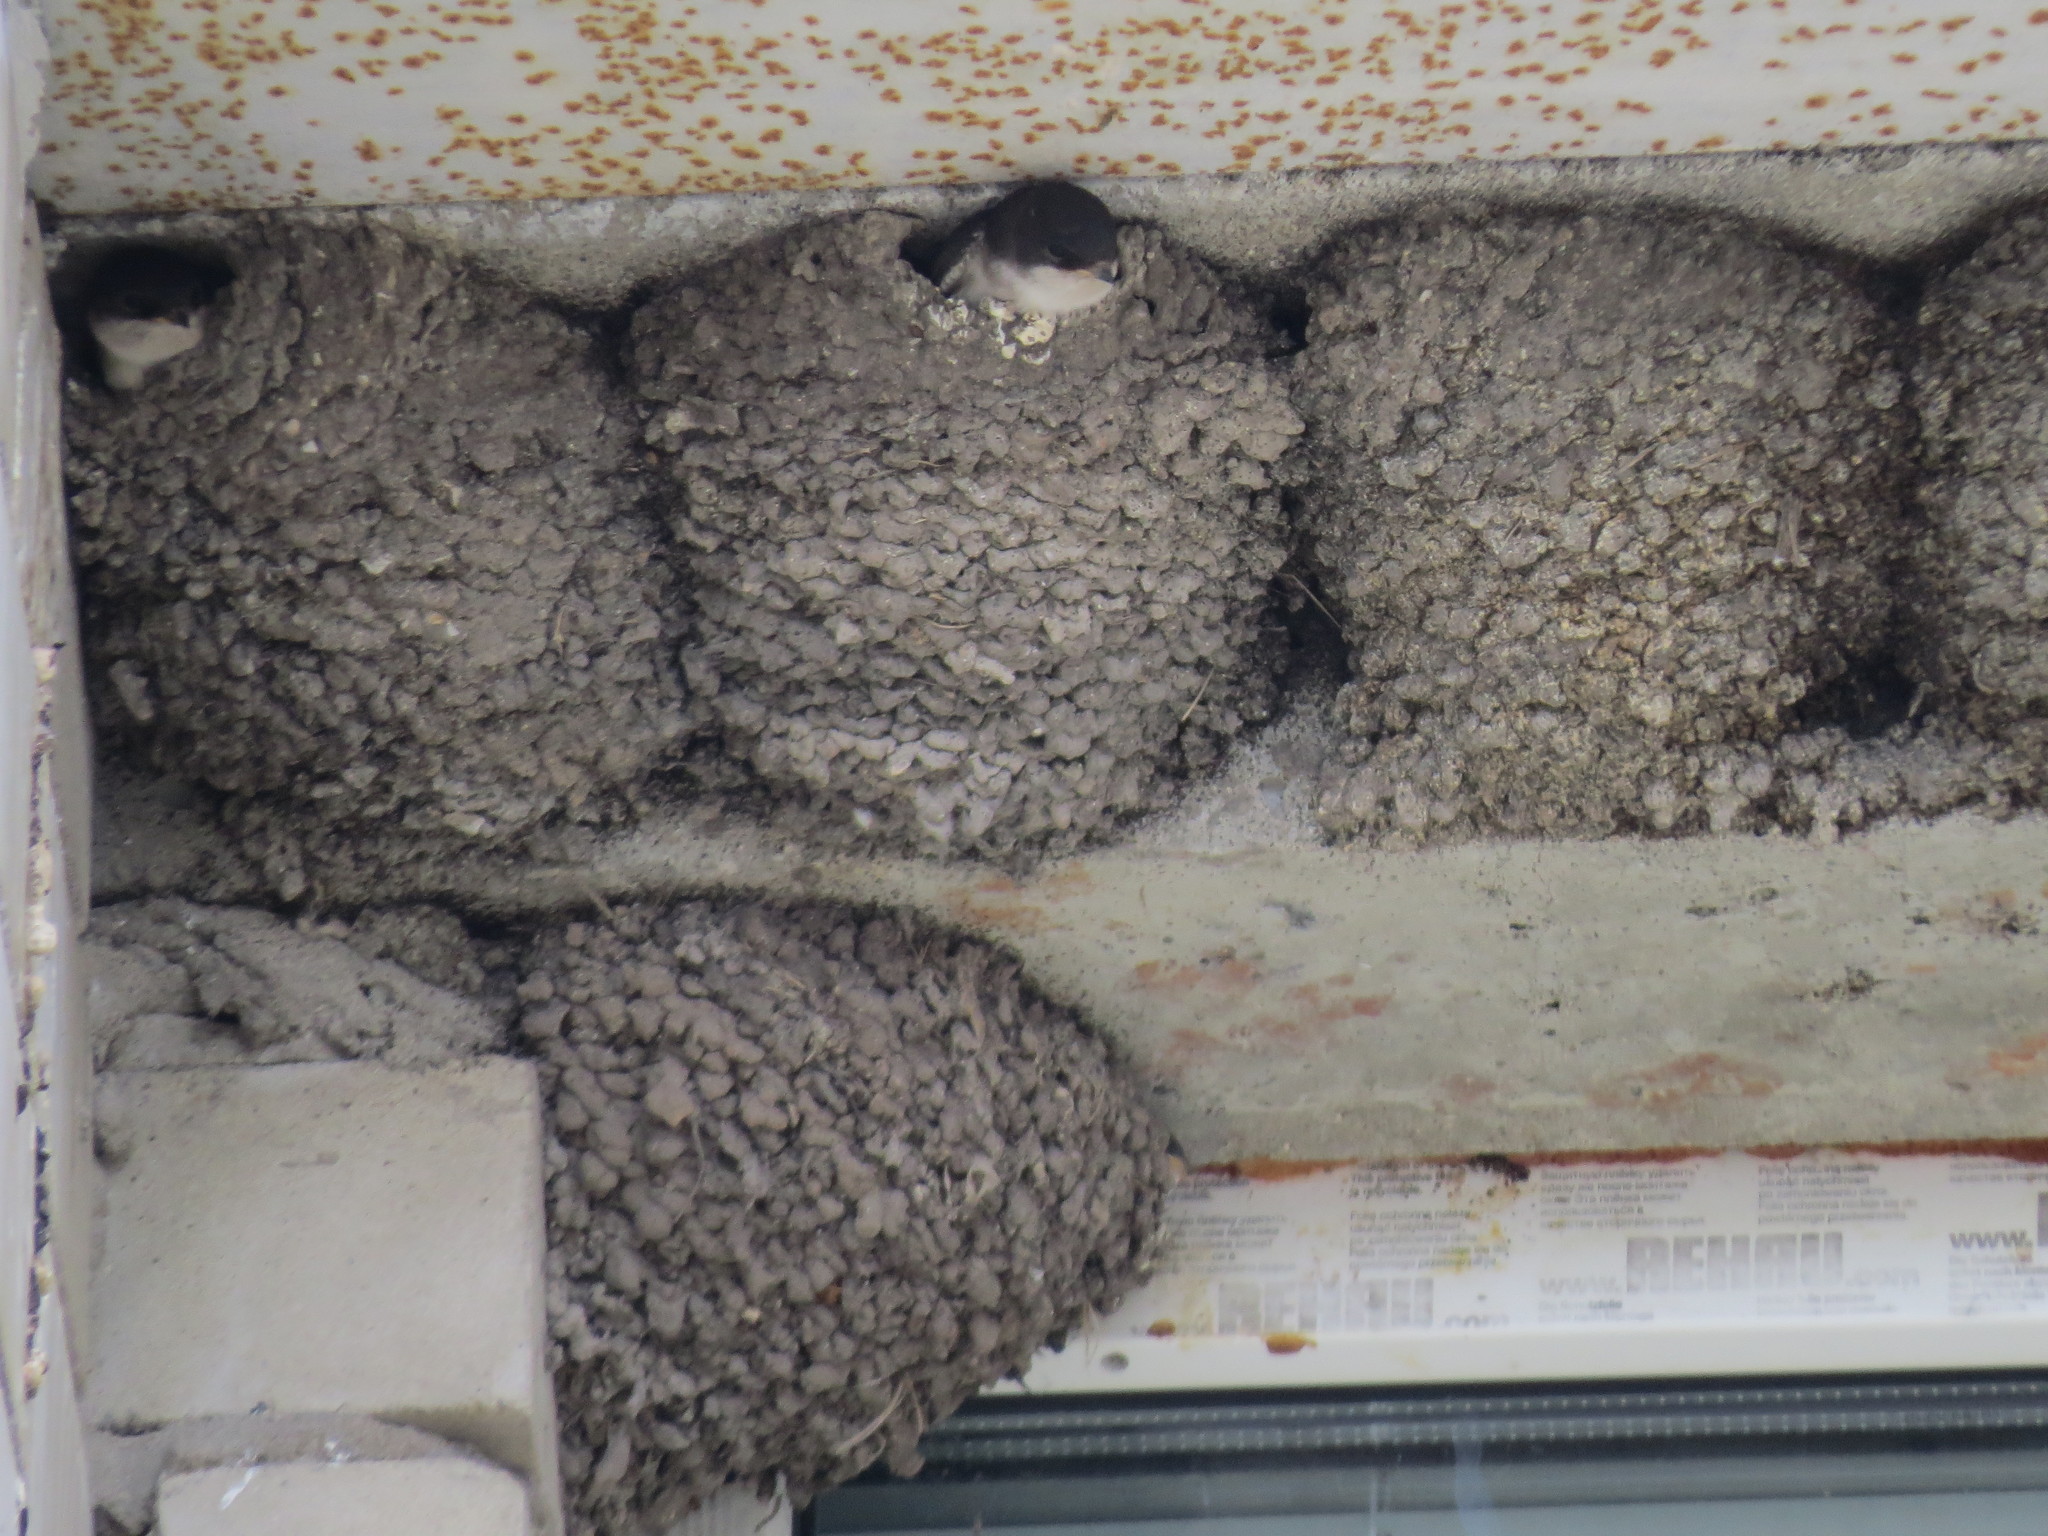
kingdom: Animalia
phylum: Chordata
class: Aves
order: Passeriformes
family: Hirundinidae
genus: Delichon
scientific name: Delichon urbicum
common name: Common house martin
